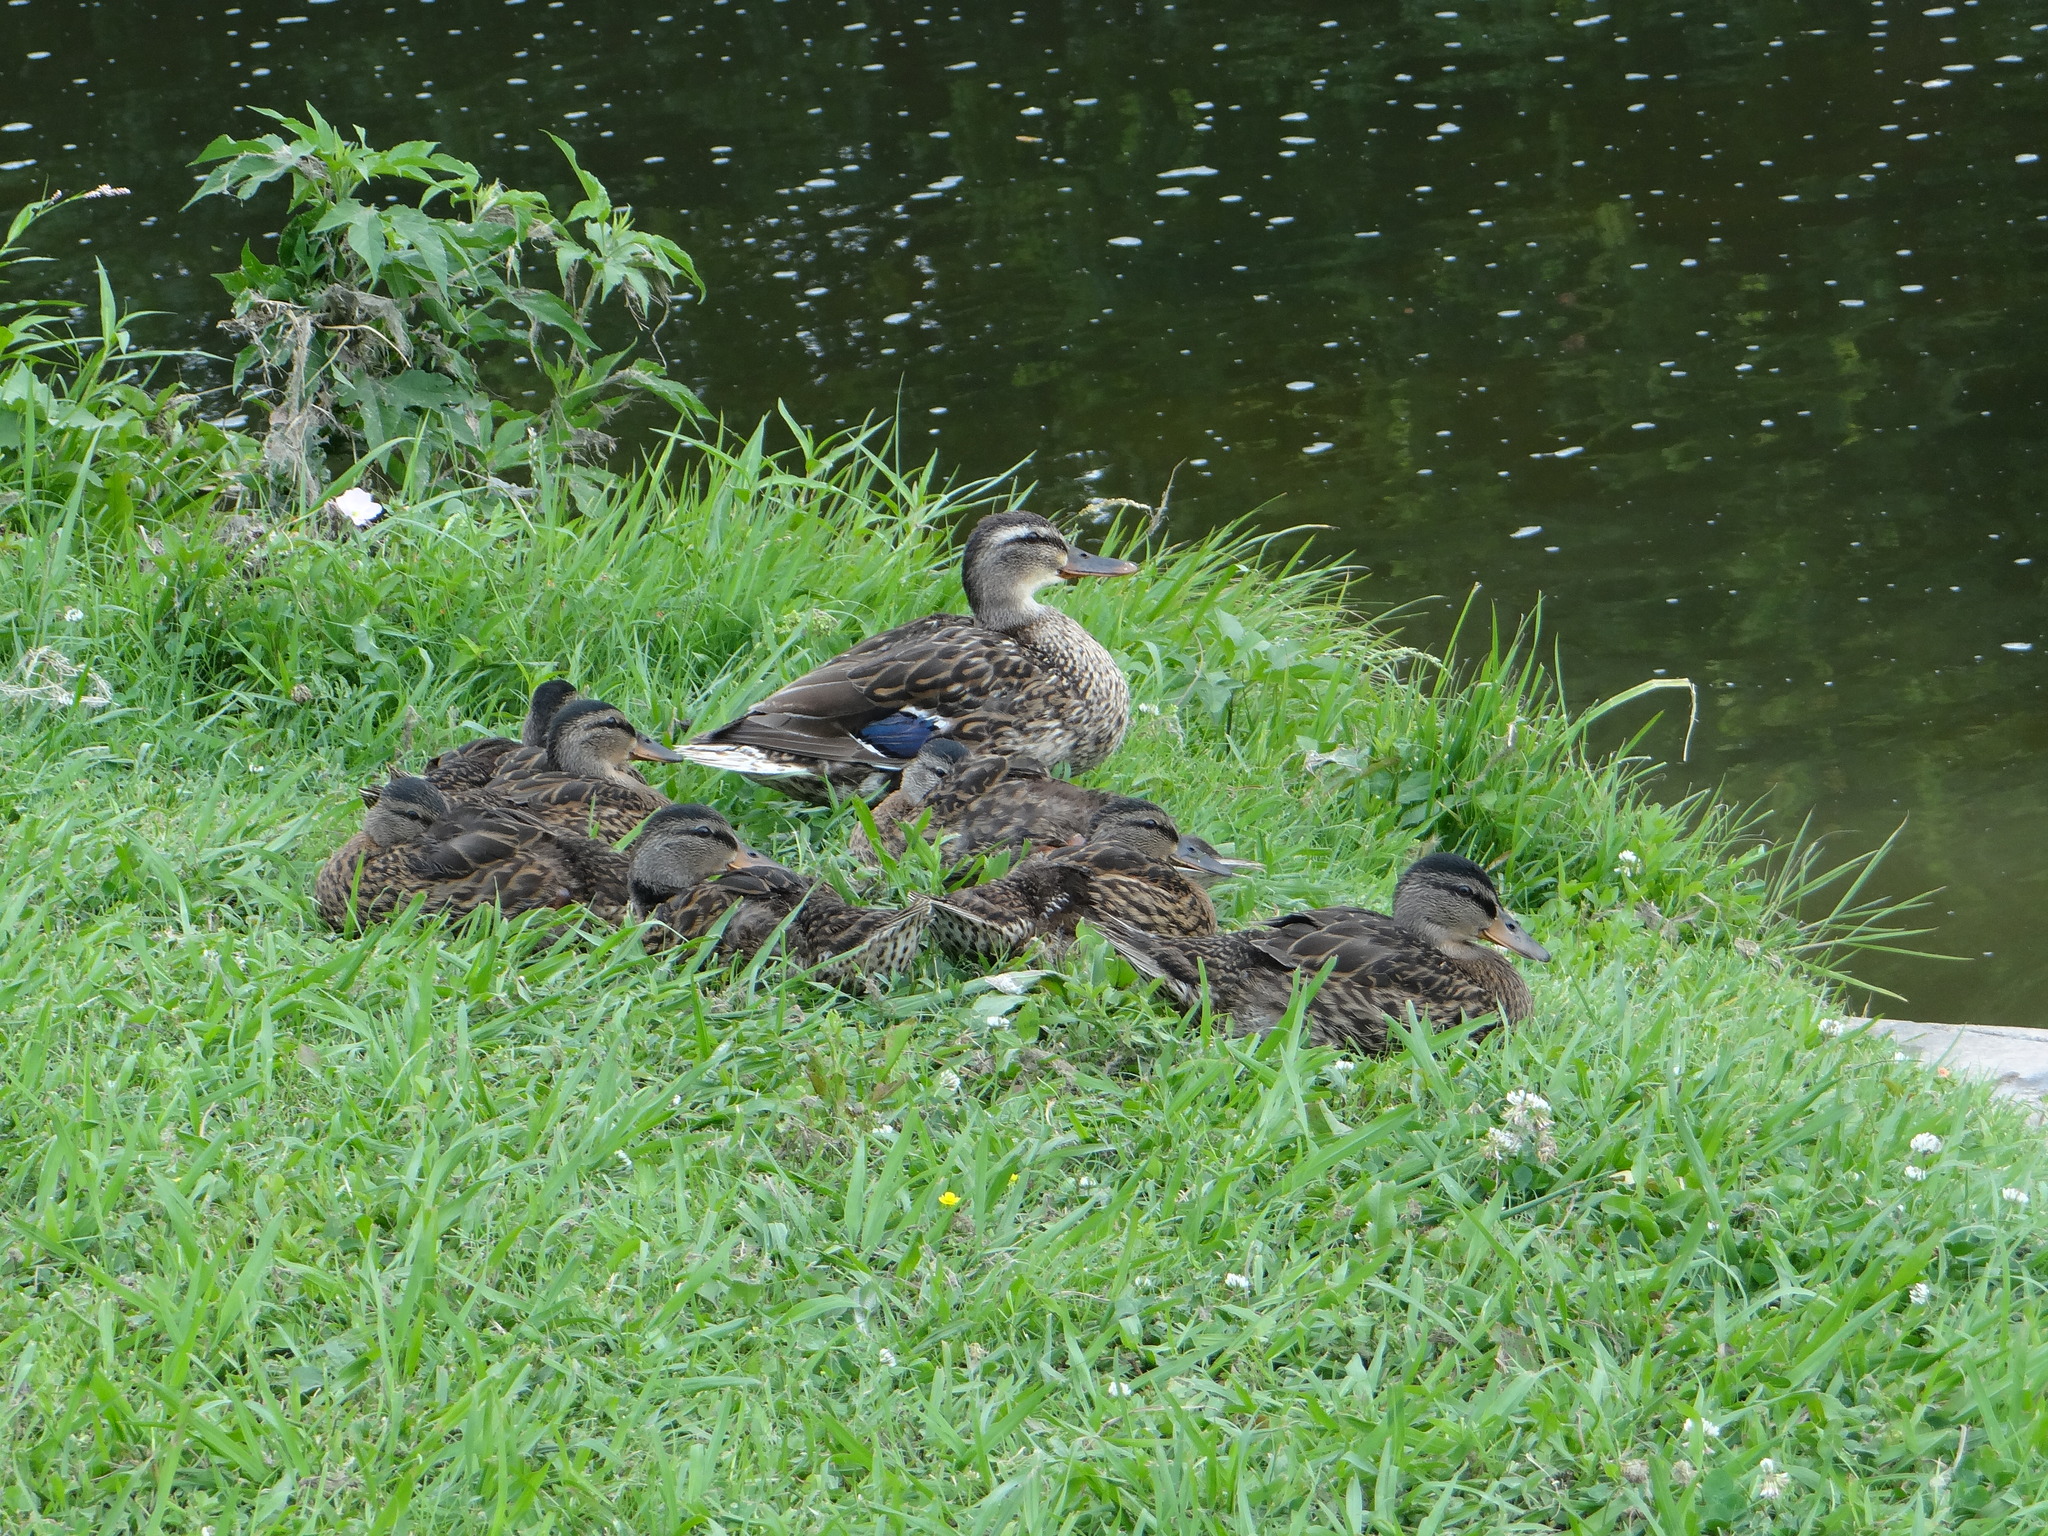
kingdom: Animalia
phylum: Chordata
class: Aves
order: Anseriformes
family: Anatidae
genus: Anas
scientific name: Anas platyrhynchos
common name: Mallard
